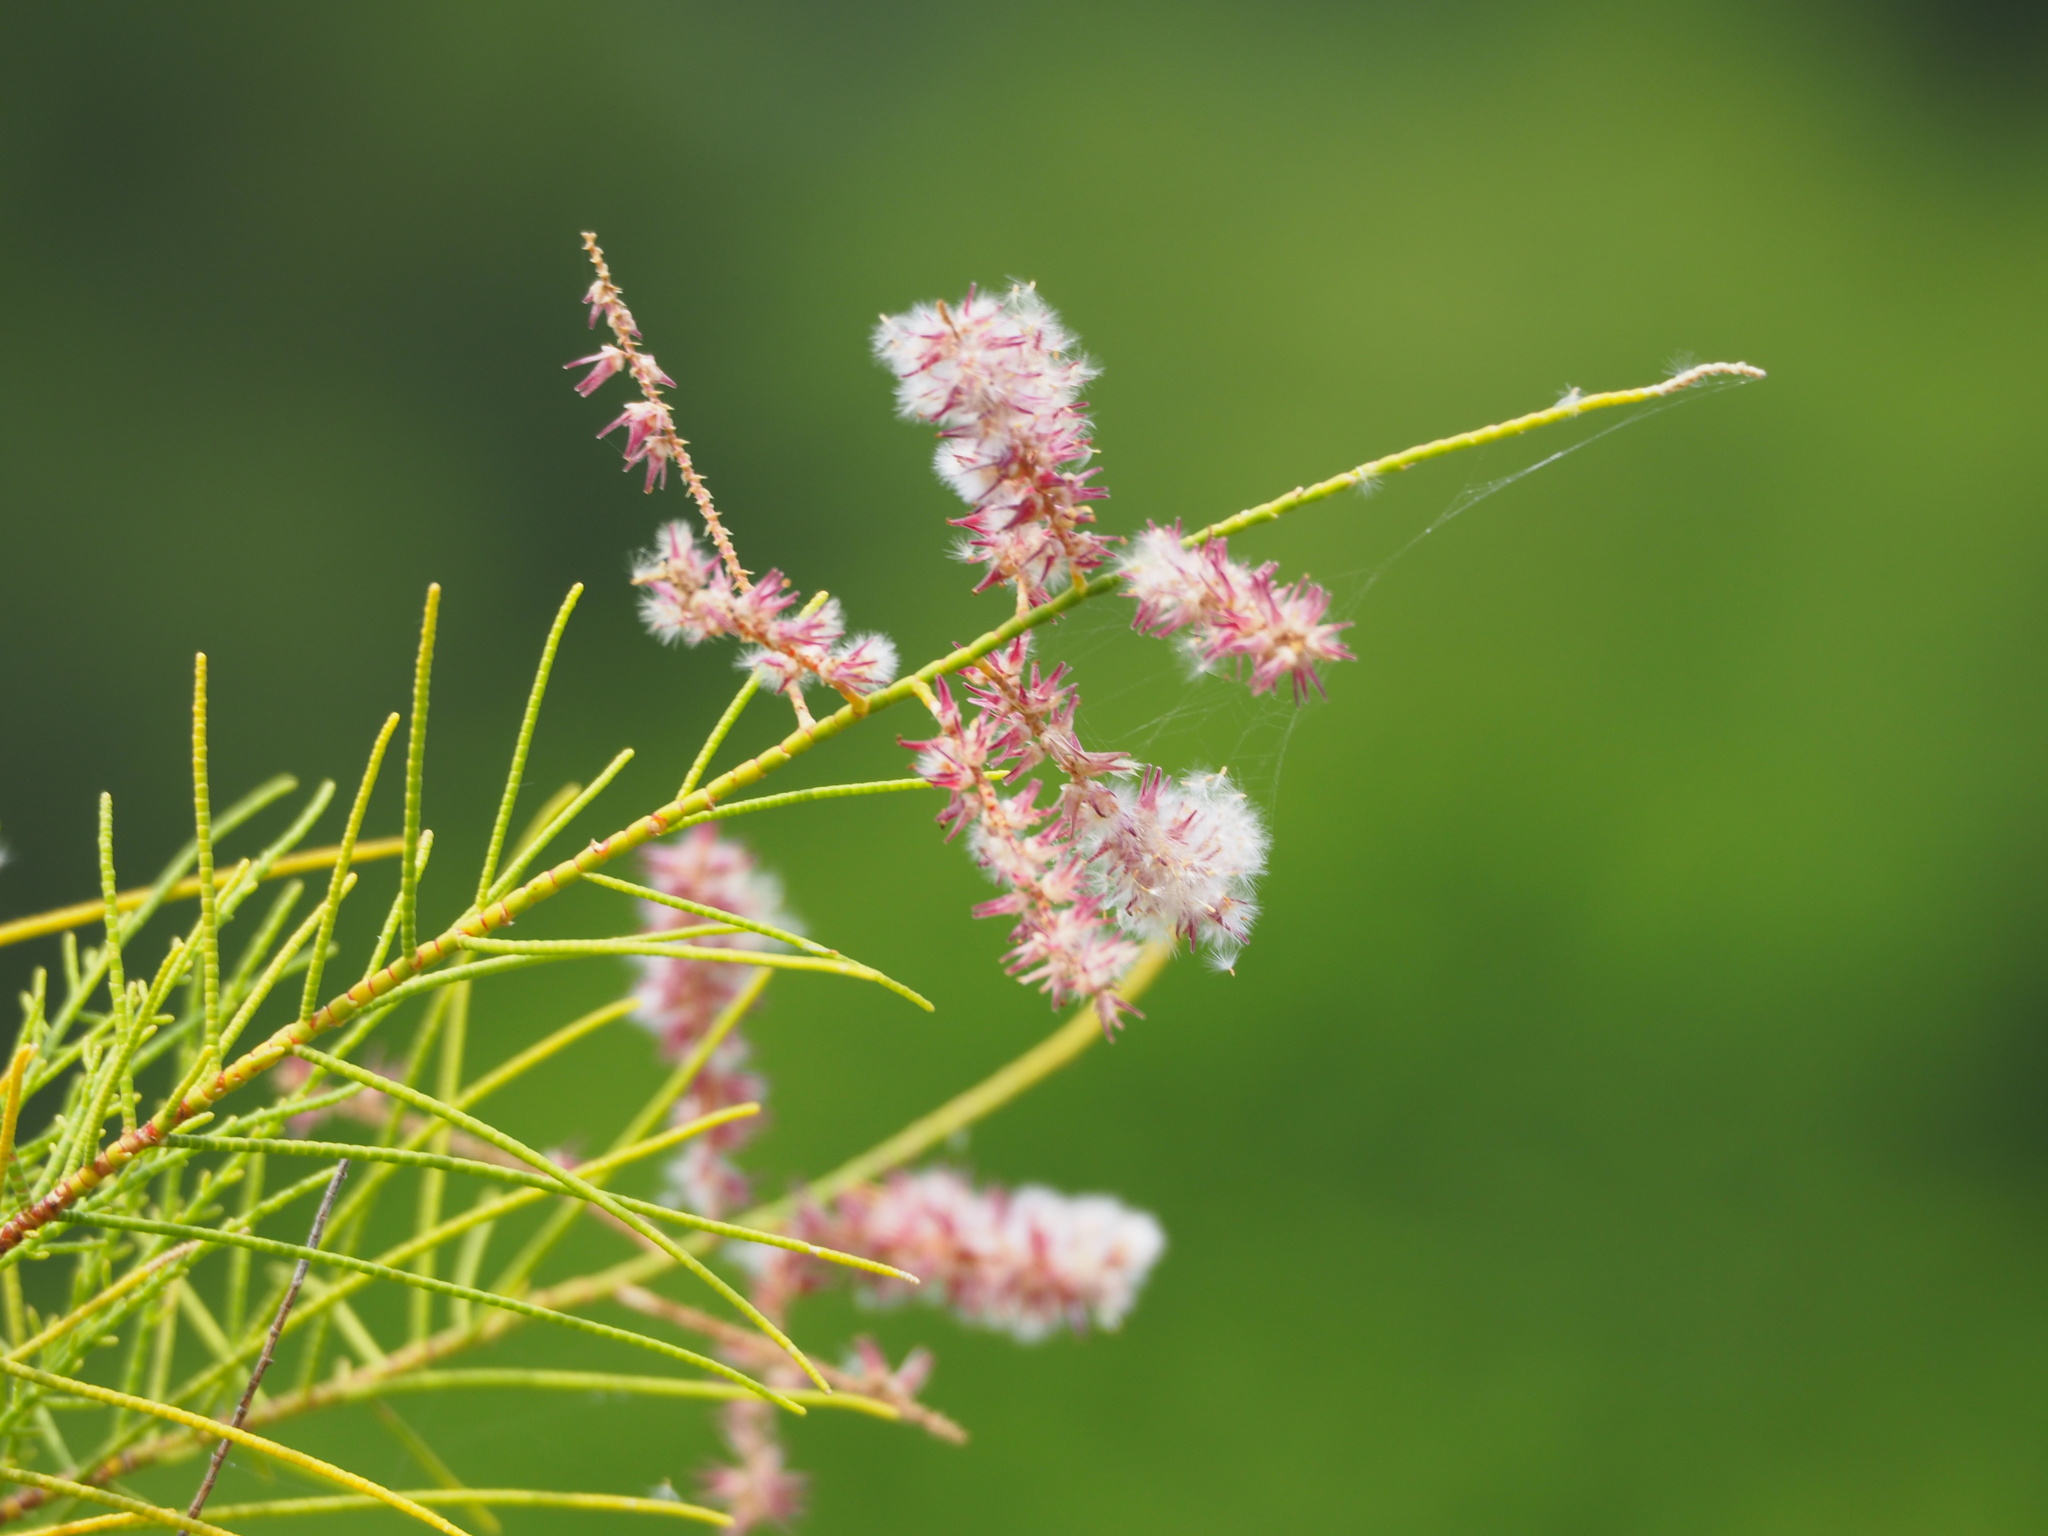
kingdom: Plantae
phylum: Tracheophyta
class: Magnoliopsida
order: Caryophyllales
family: Tamaricaceae
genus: Tamarix
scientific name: Tamarix aphylla
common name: Athel tamarisk
